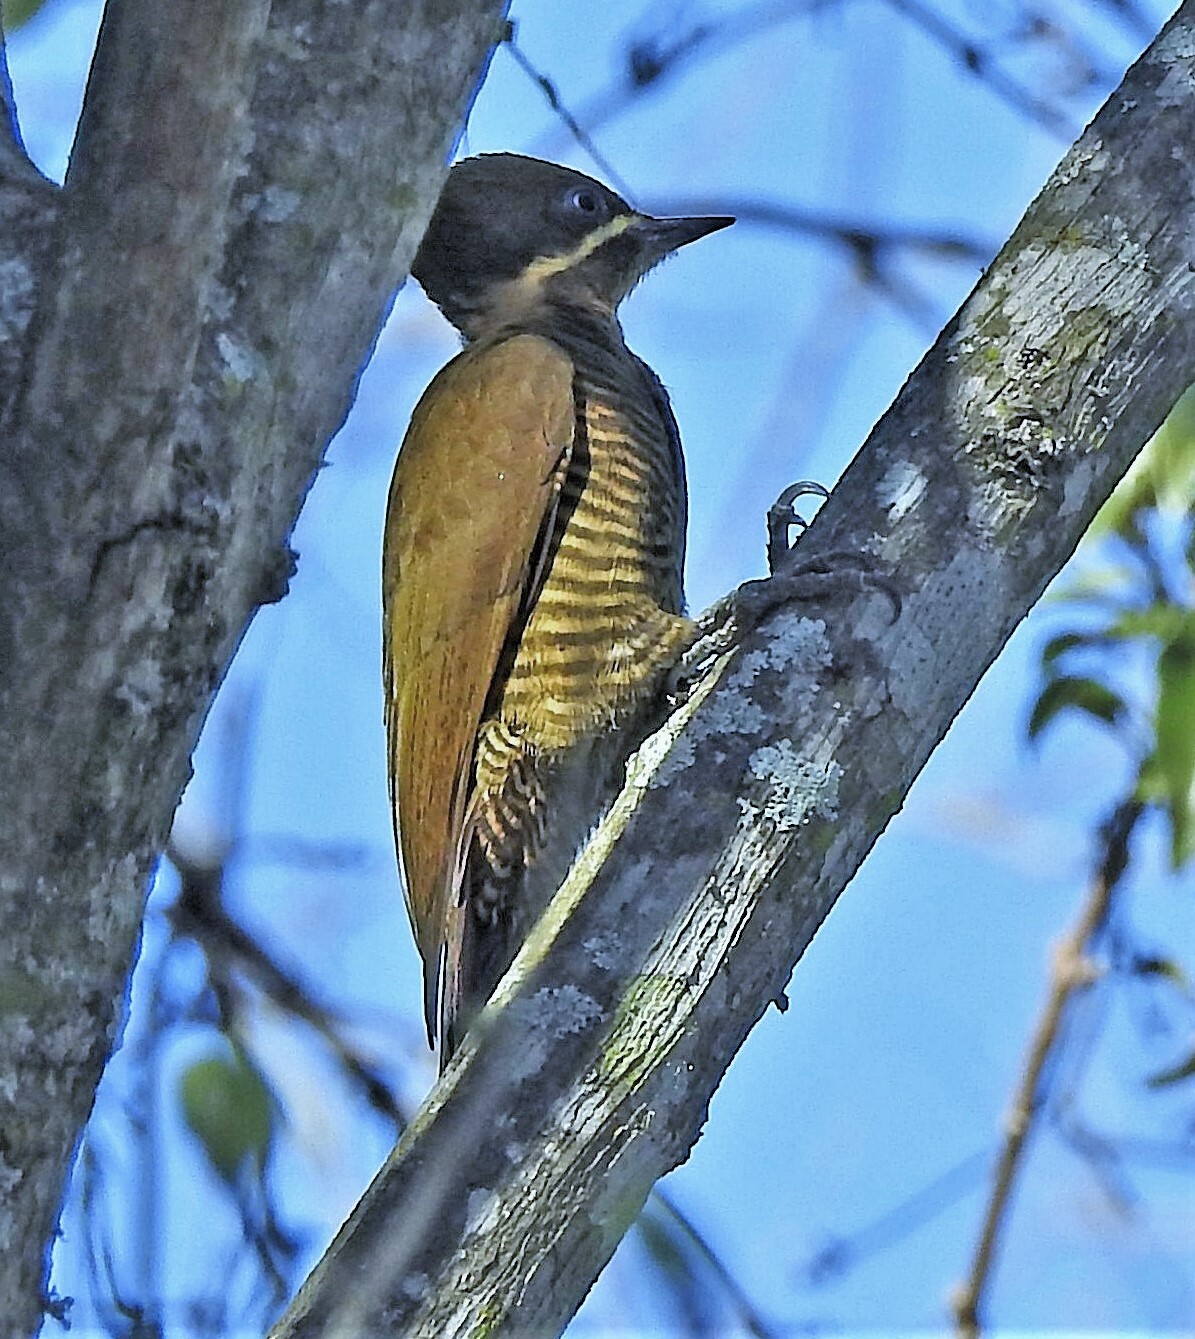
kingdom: Animalia
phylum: Chordata
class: Aves
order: Piciformes
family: Picidae
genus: Piculus
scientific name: Piculus chrysochloros
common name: Golden-green woodpecker
